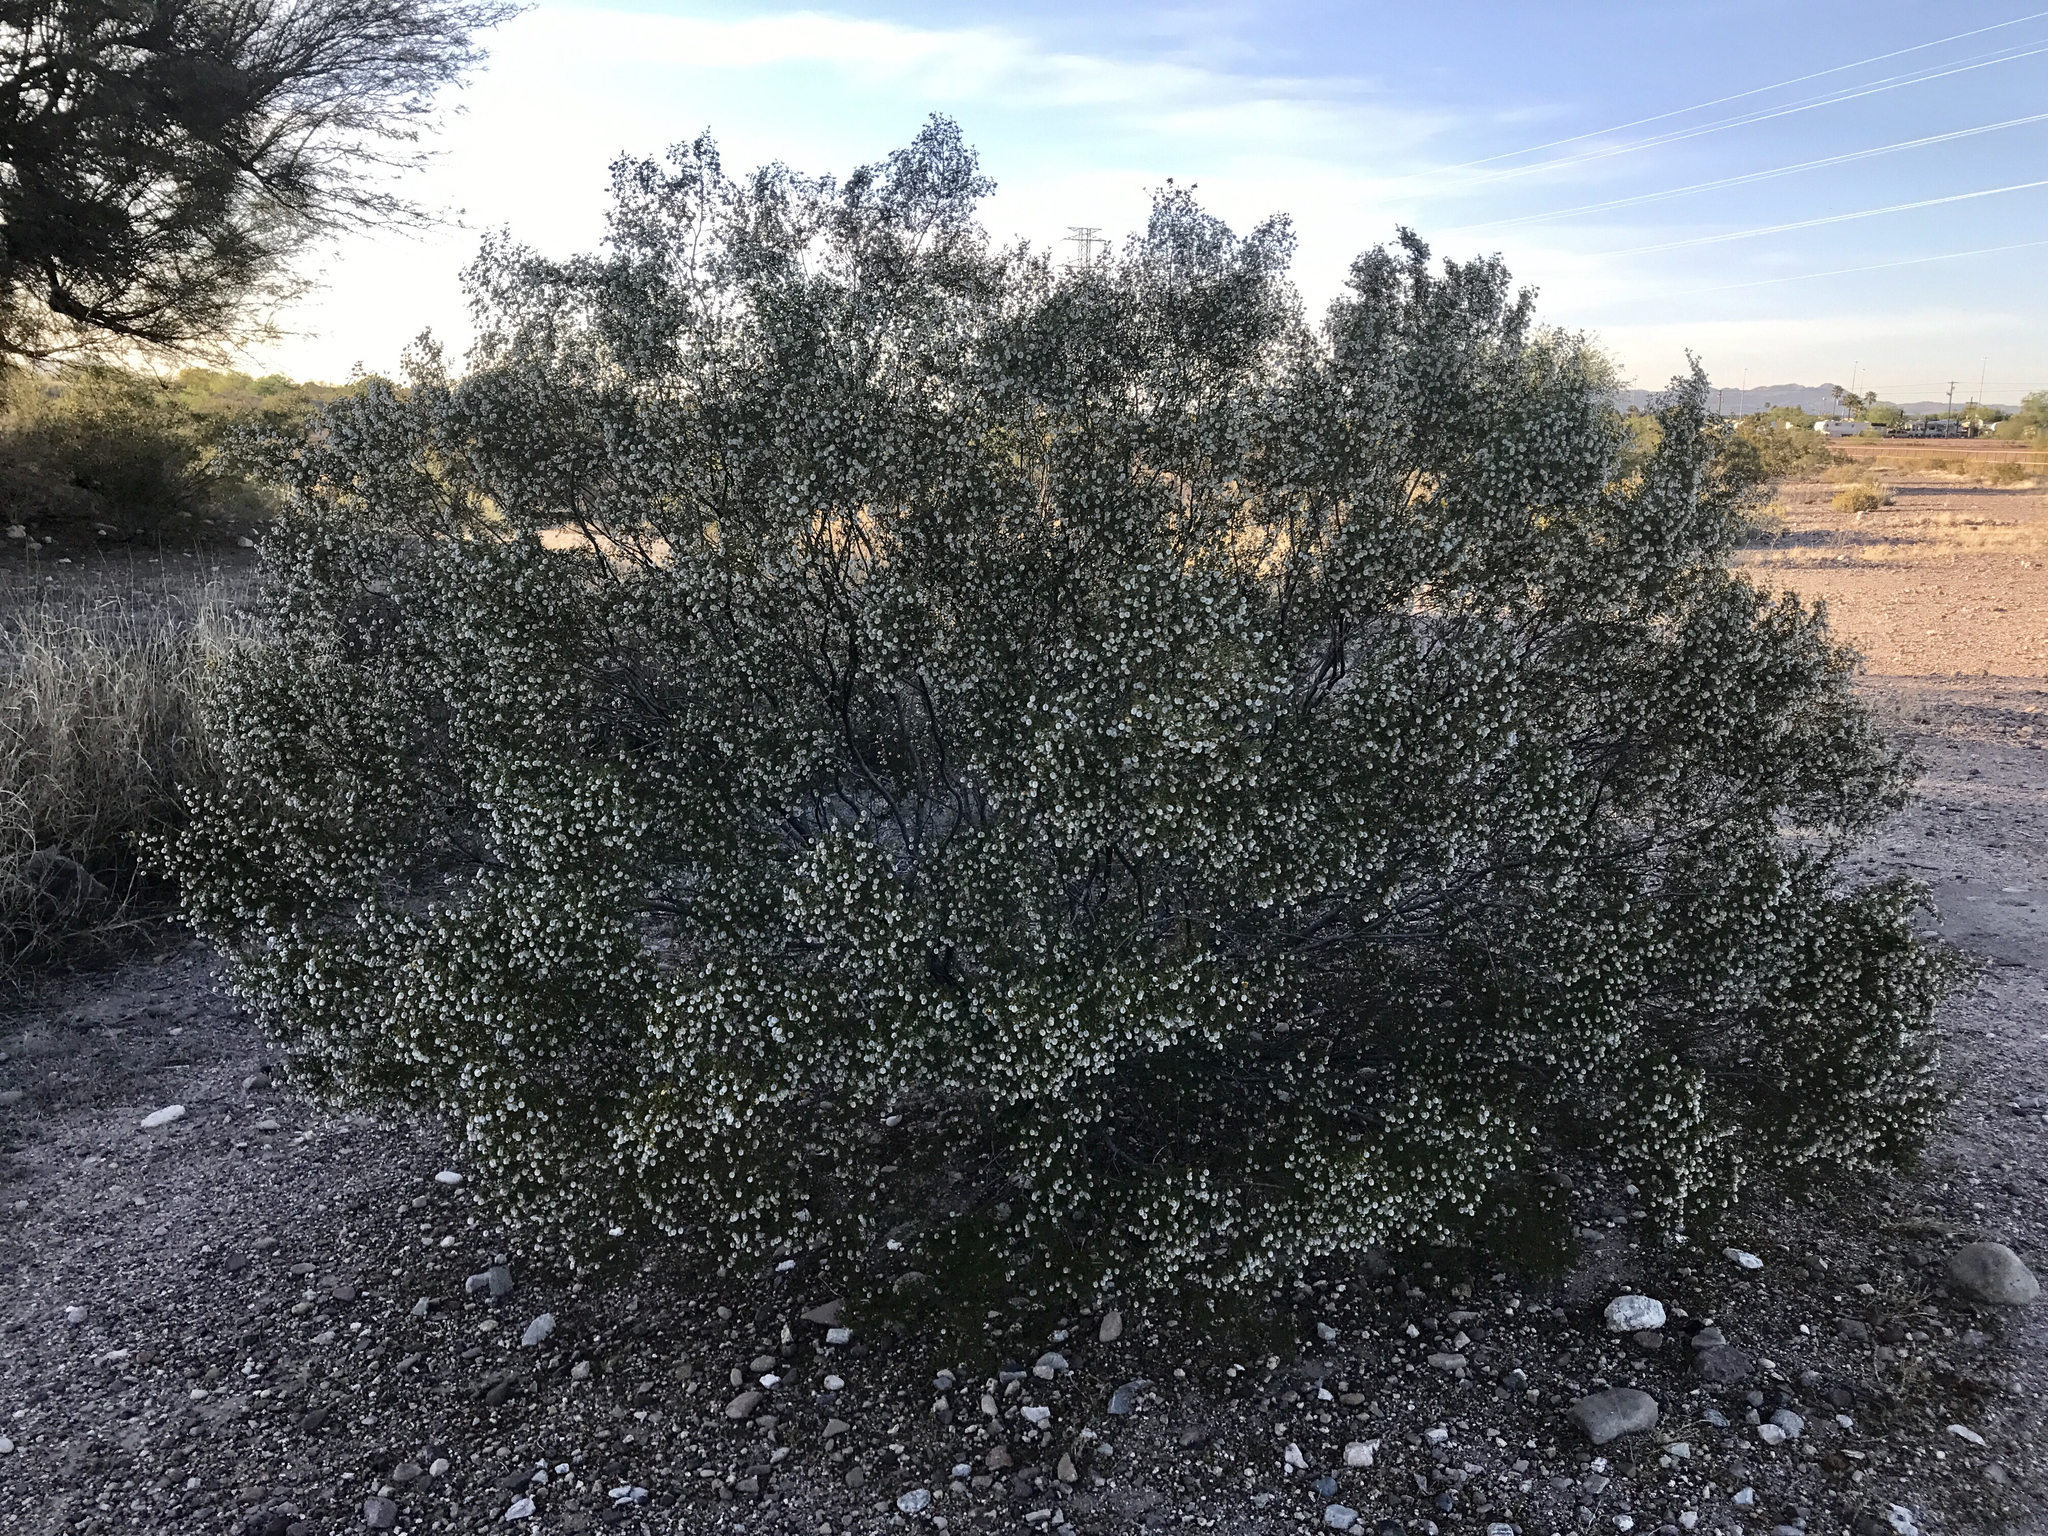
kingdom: Plantae
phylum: Tracheophyta
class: Magnoliopsida
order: Zygophyllales
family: Zygophyllaceae
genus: Larrea
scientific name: Larrea tridentata
